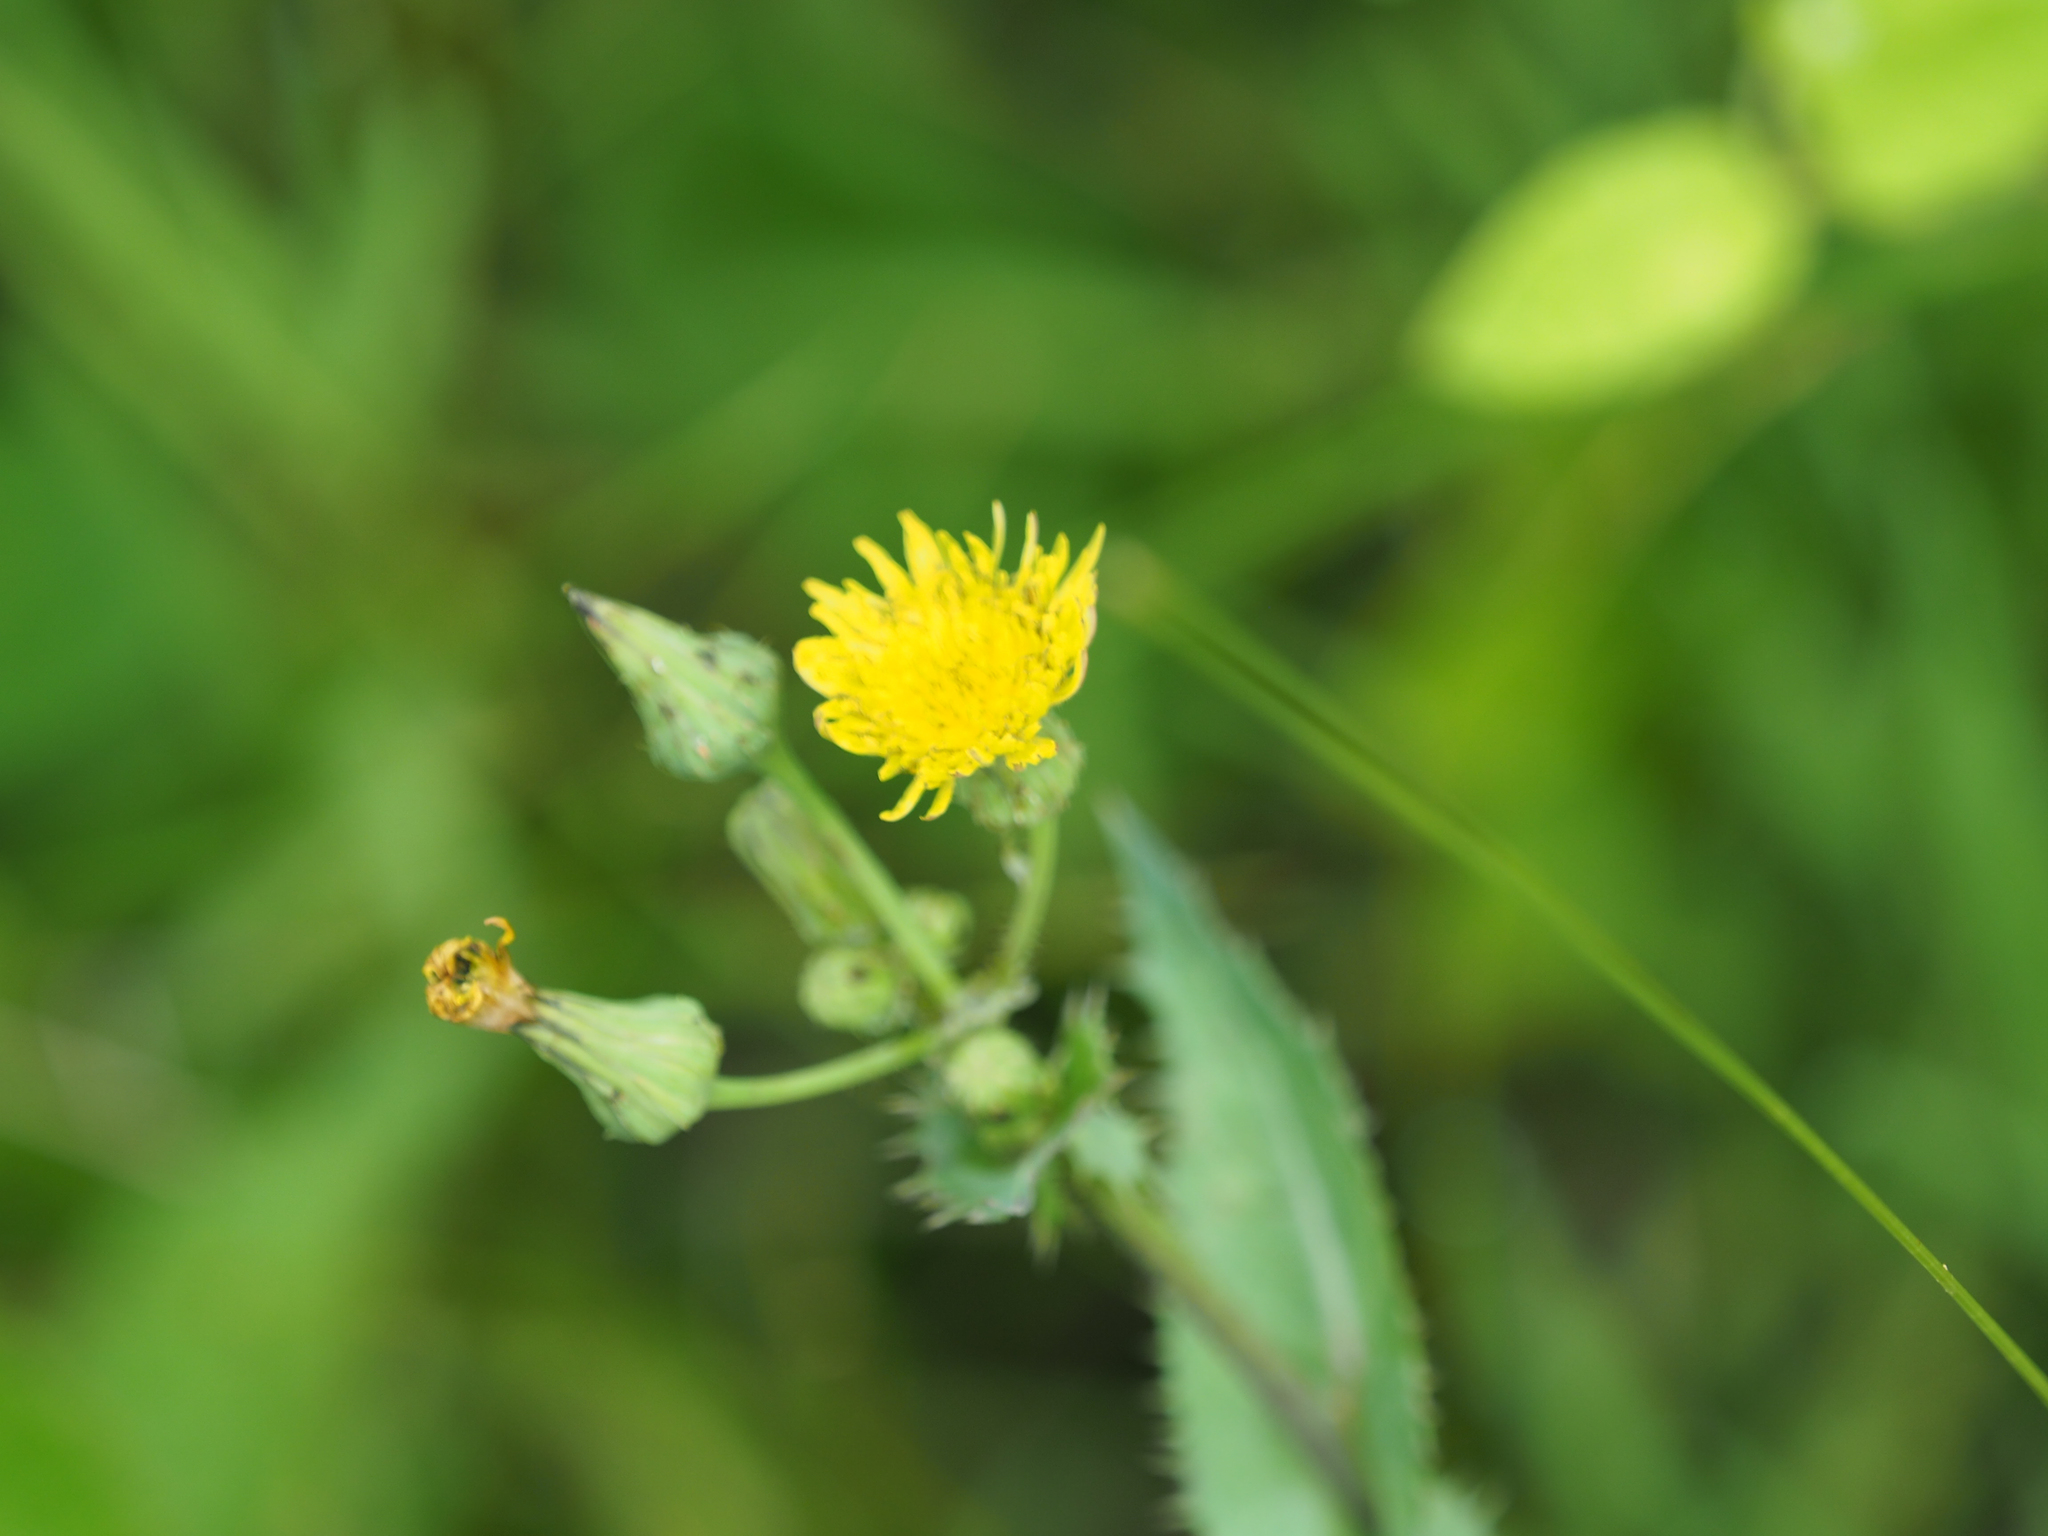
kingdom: Plantae
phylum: Tracheophyta
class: Magnoliopsida
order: Asterales
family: Asteraceae
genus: Sonchus
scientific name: Sonchus asper
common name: Prickly sow-thistle
